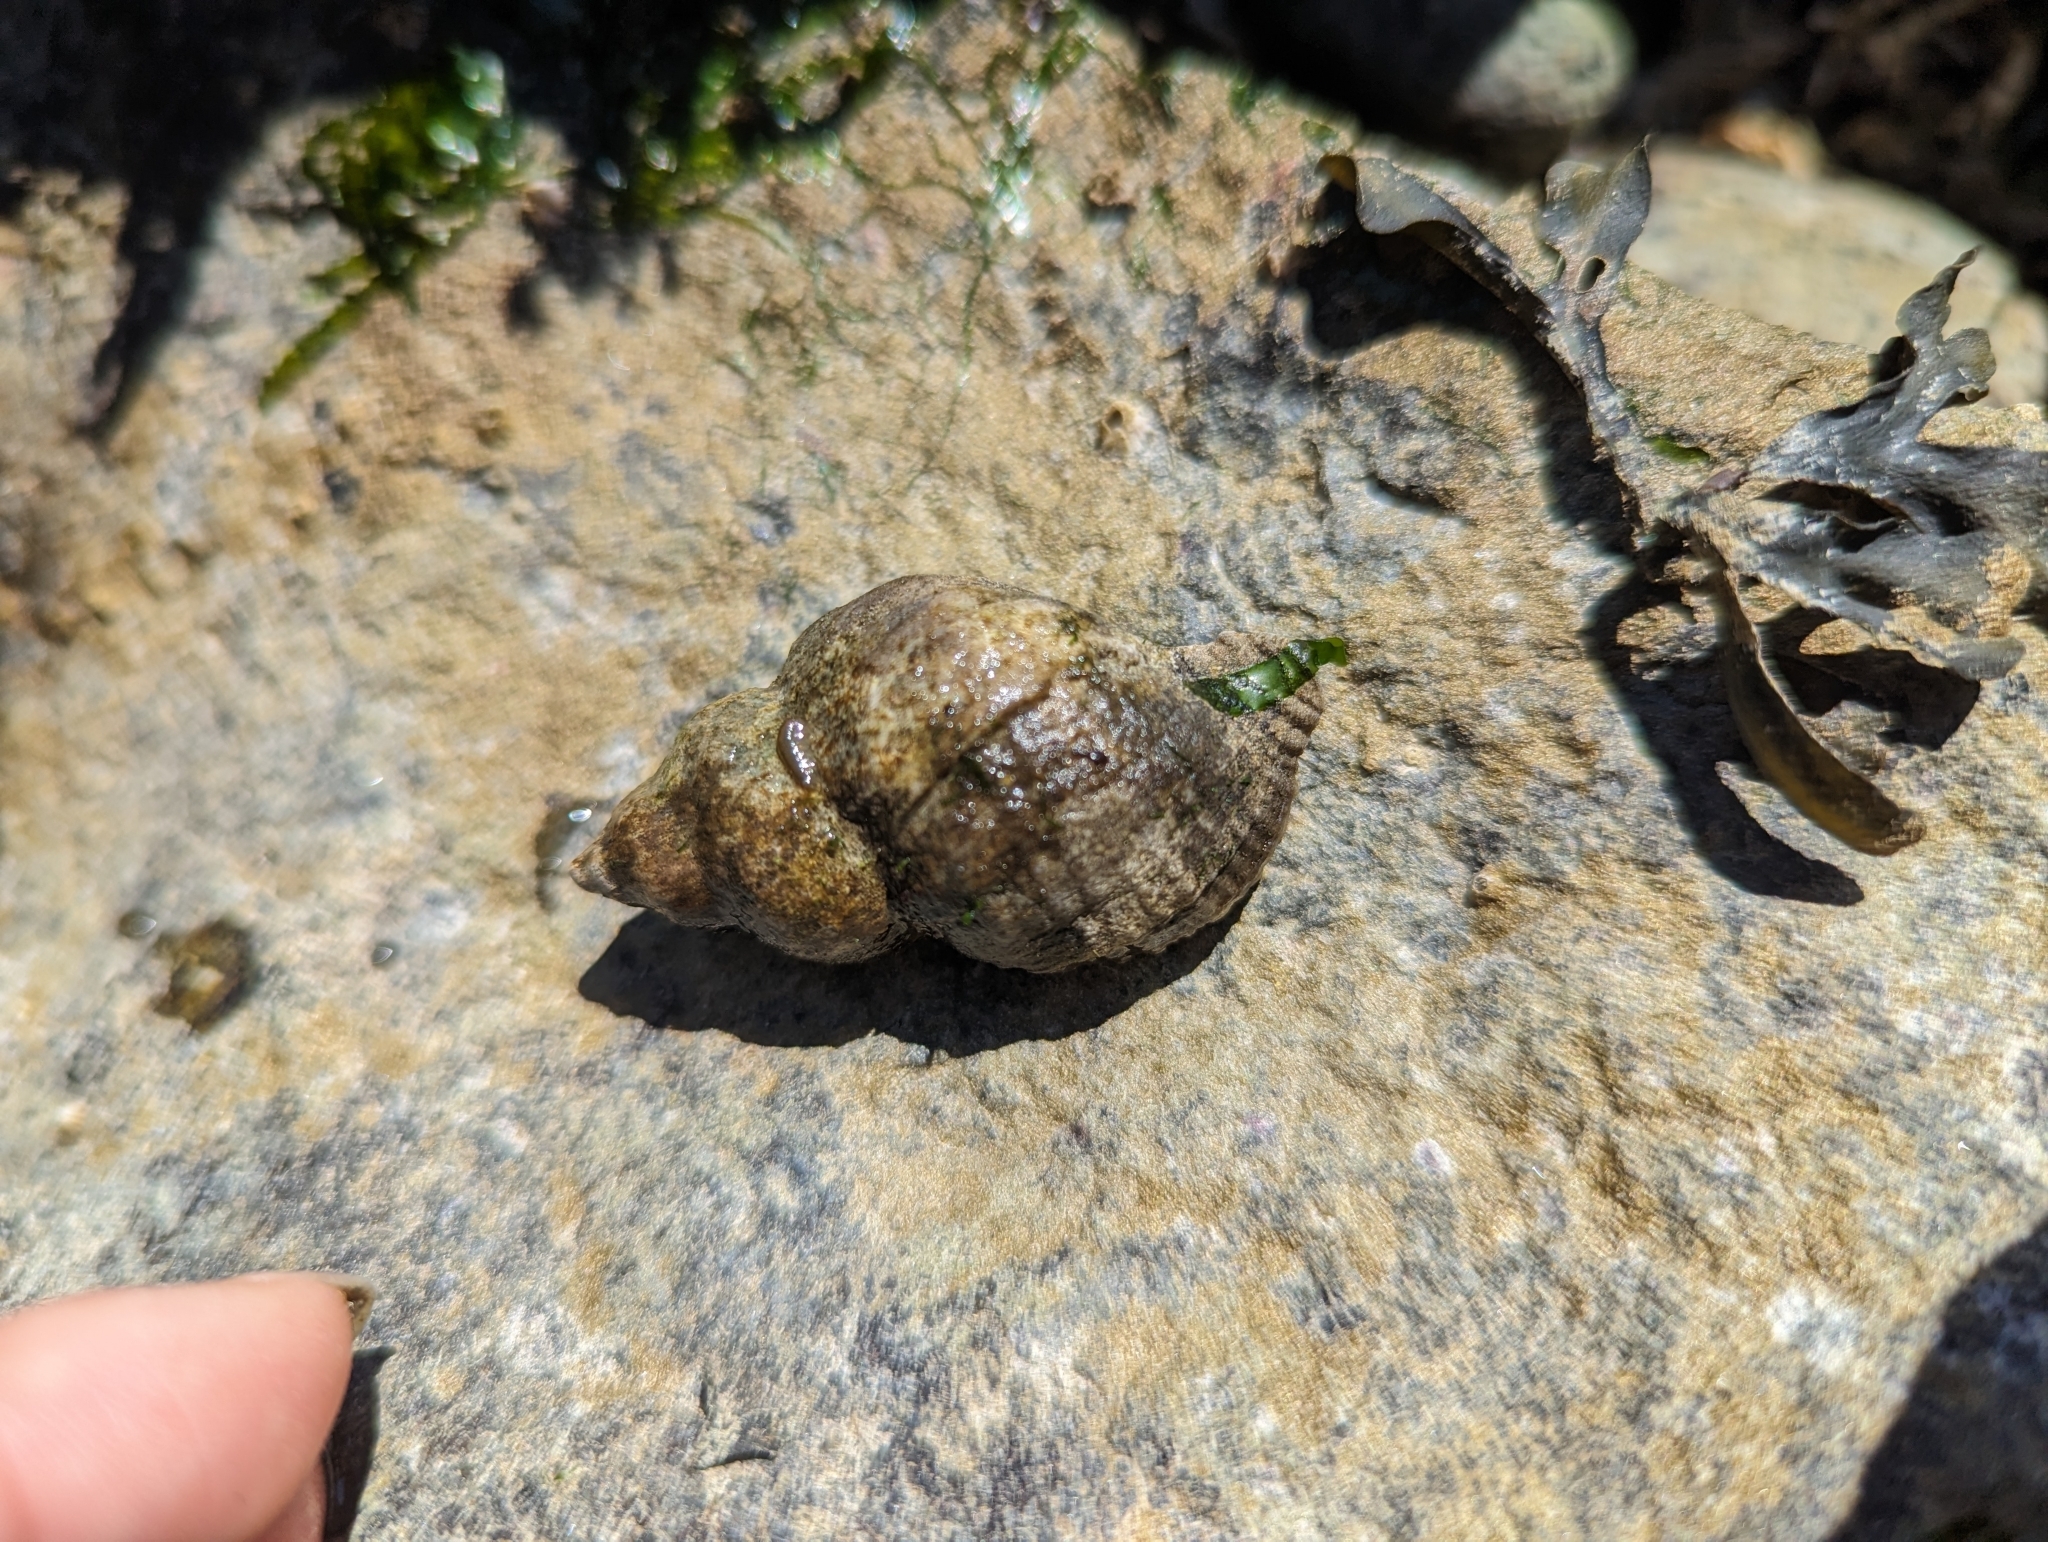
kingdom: Animalia
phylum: Mollusca
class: Gastropoda
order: Neogastropoda
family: Muricidae
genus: Nucella
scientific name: Nucella lamellosa
